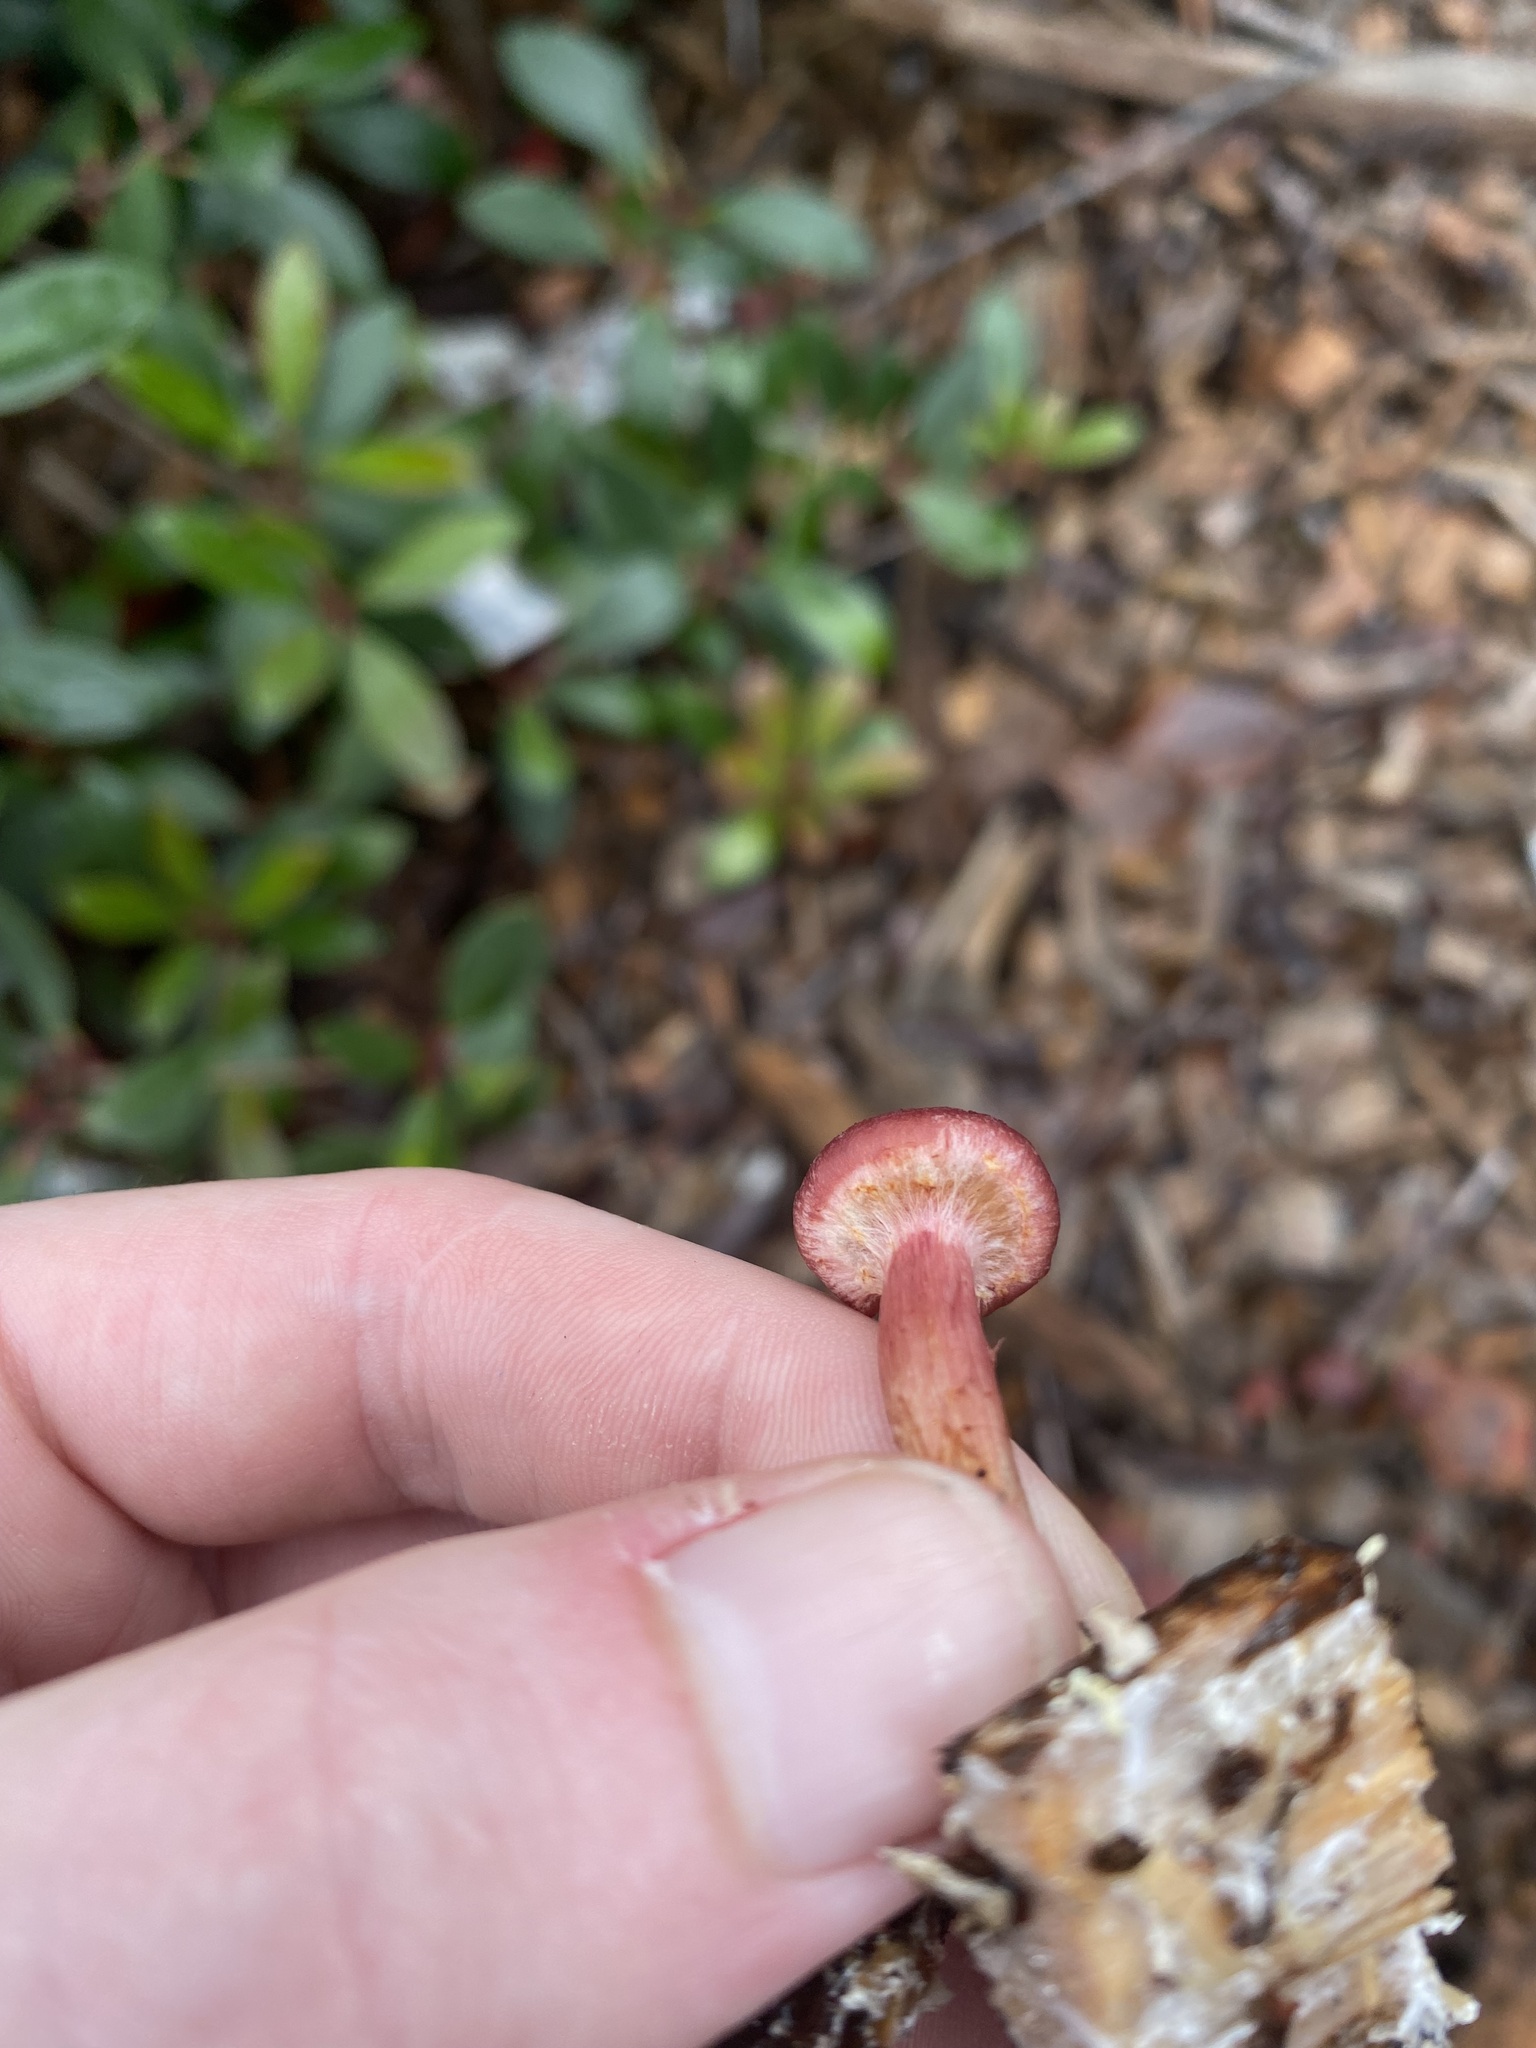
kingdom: Fungi
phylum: Basidiomycota
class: Agaricomycetes
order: Agaricales
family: Hymenogastraceae
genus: Gymnopilus
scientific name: Gymnopilus luteofolius
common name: Yellow-gilled gymnopilus
